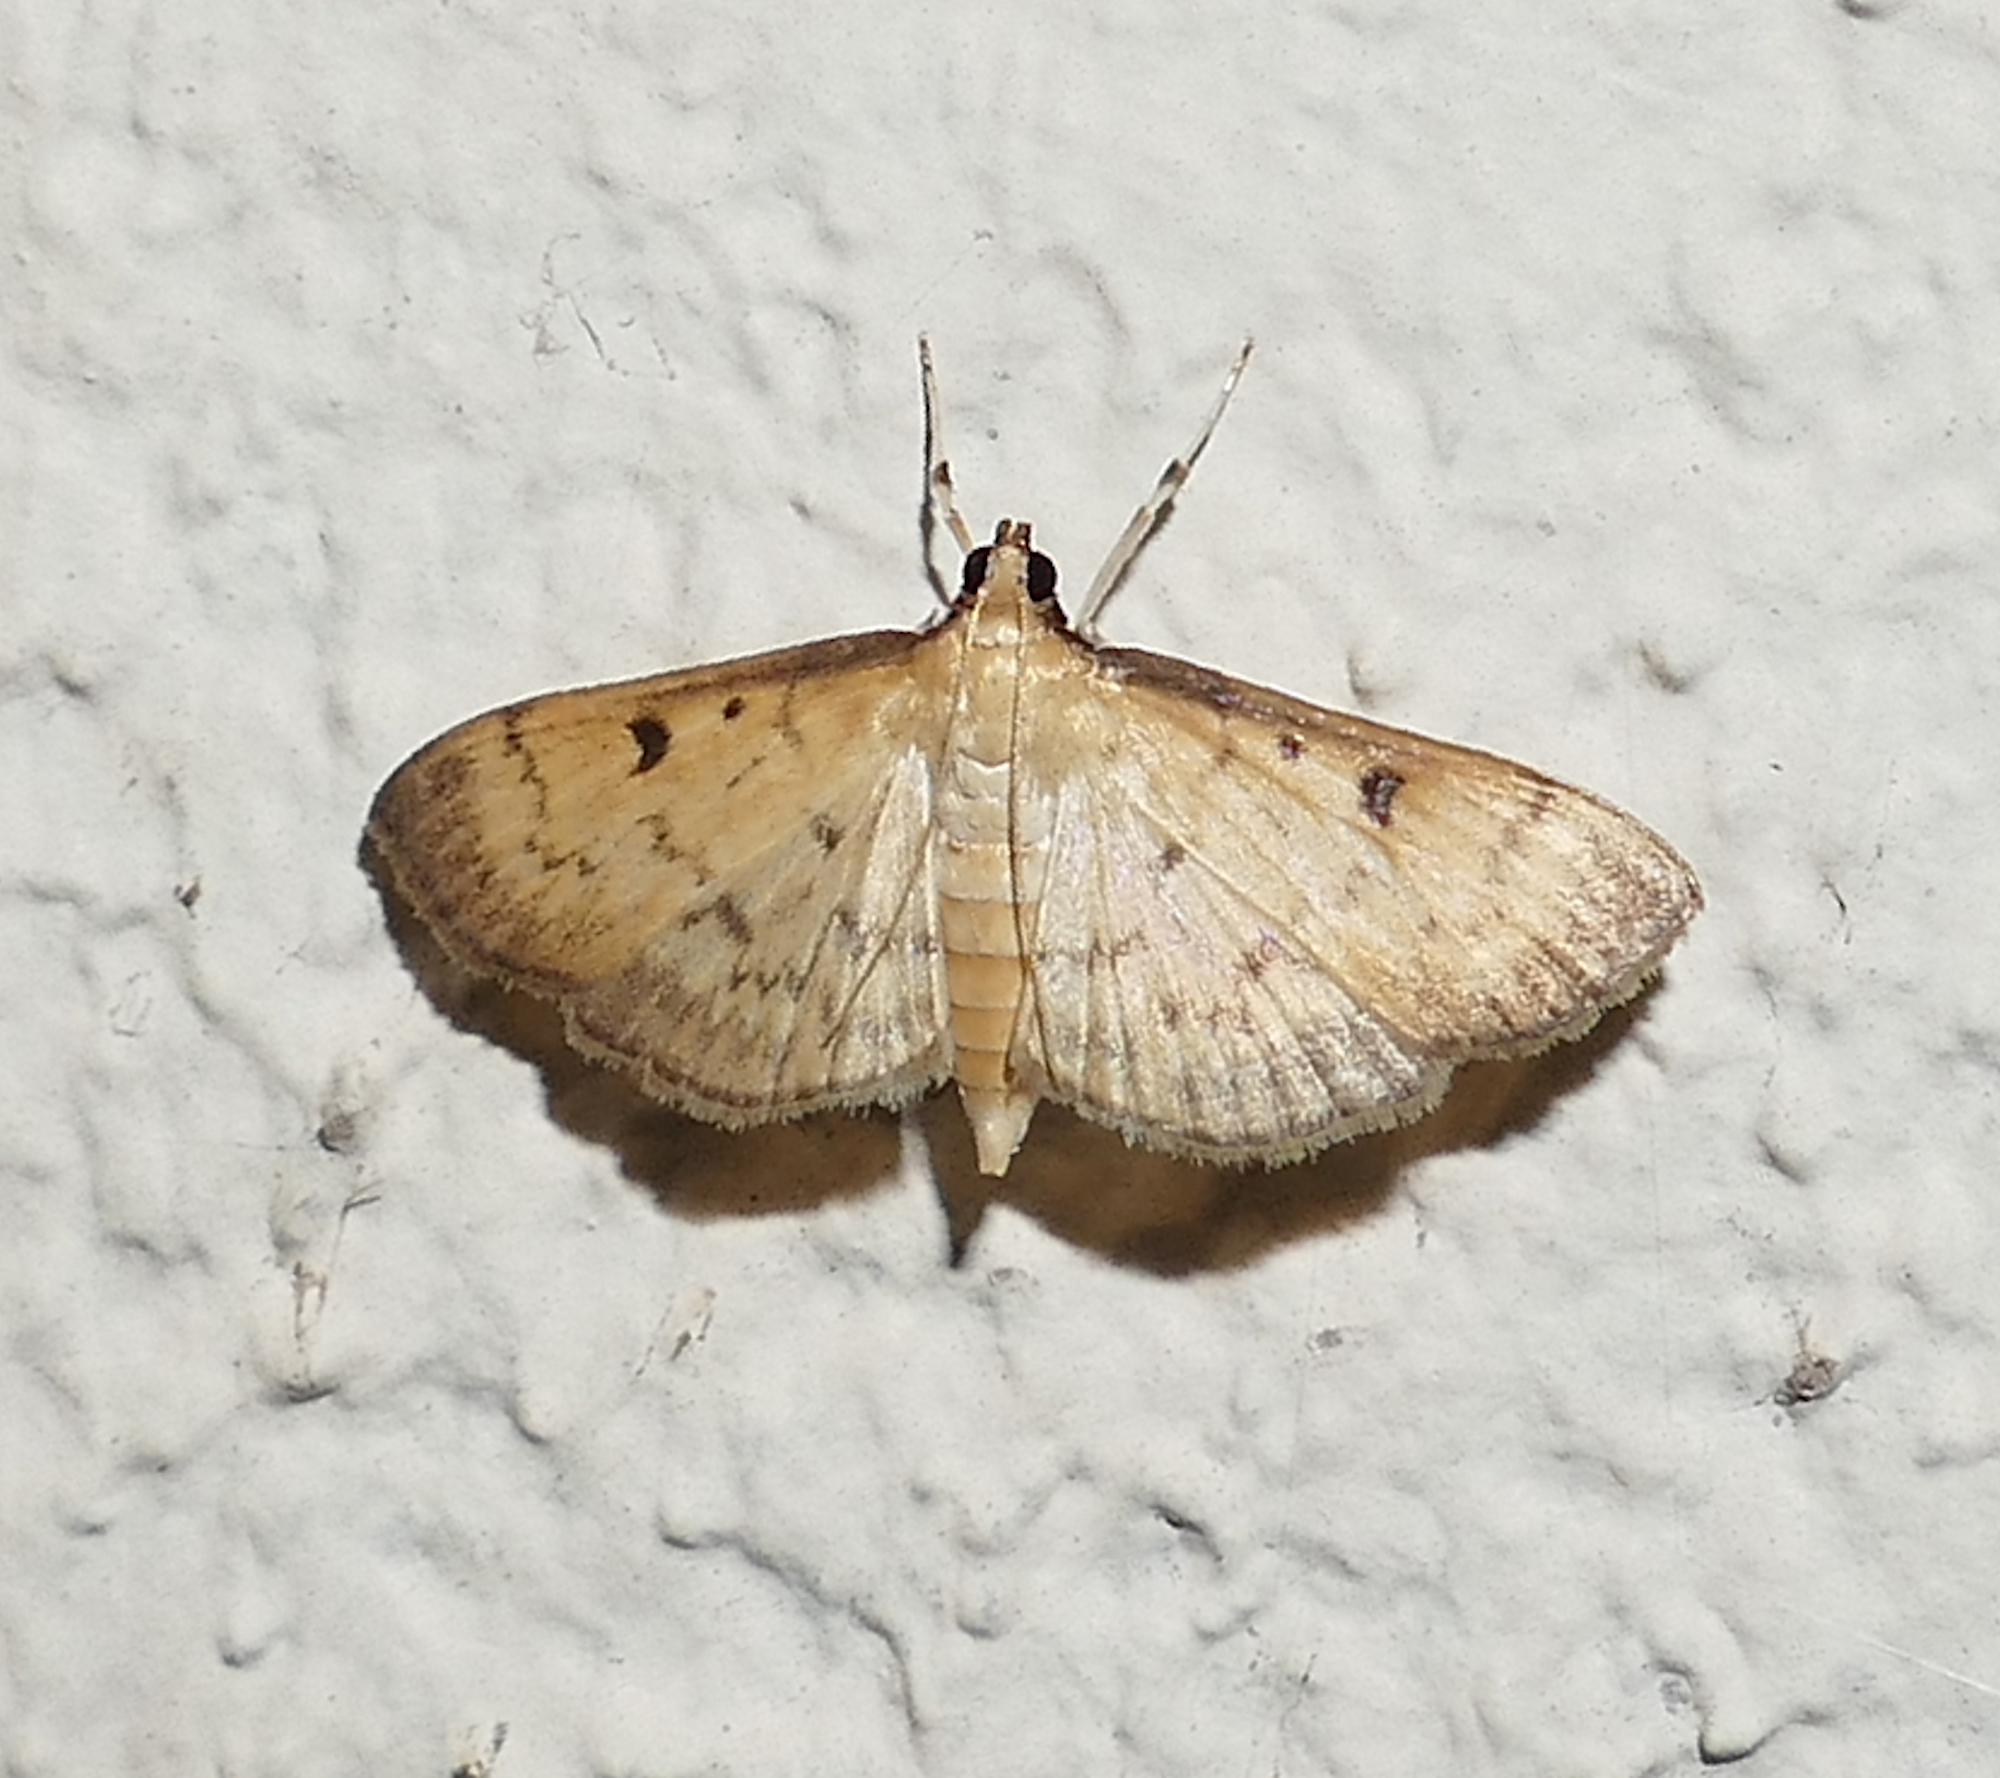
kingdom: Animalia
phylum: Arthropoda
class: Insecta
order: Lepidoptera
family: Crambidae
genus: Herpetogramma
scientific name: Herpetogramma fluctuosalis
